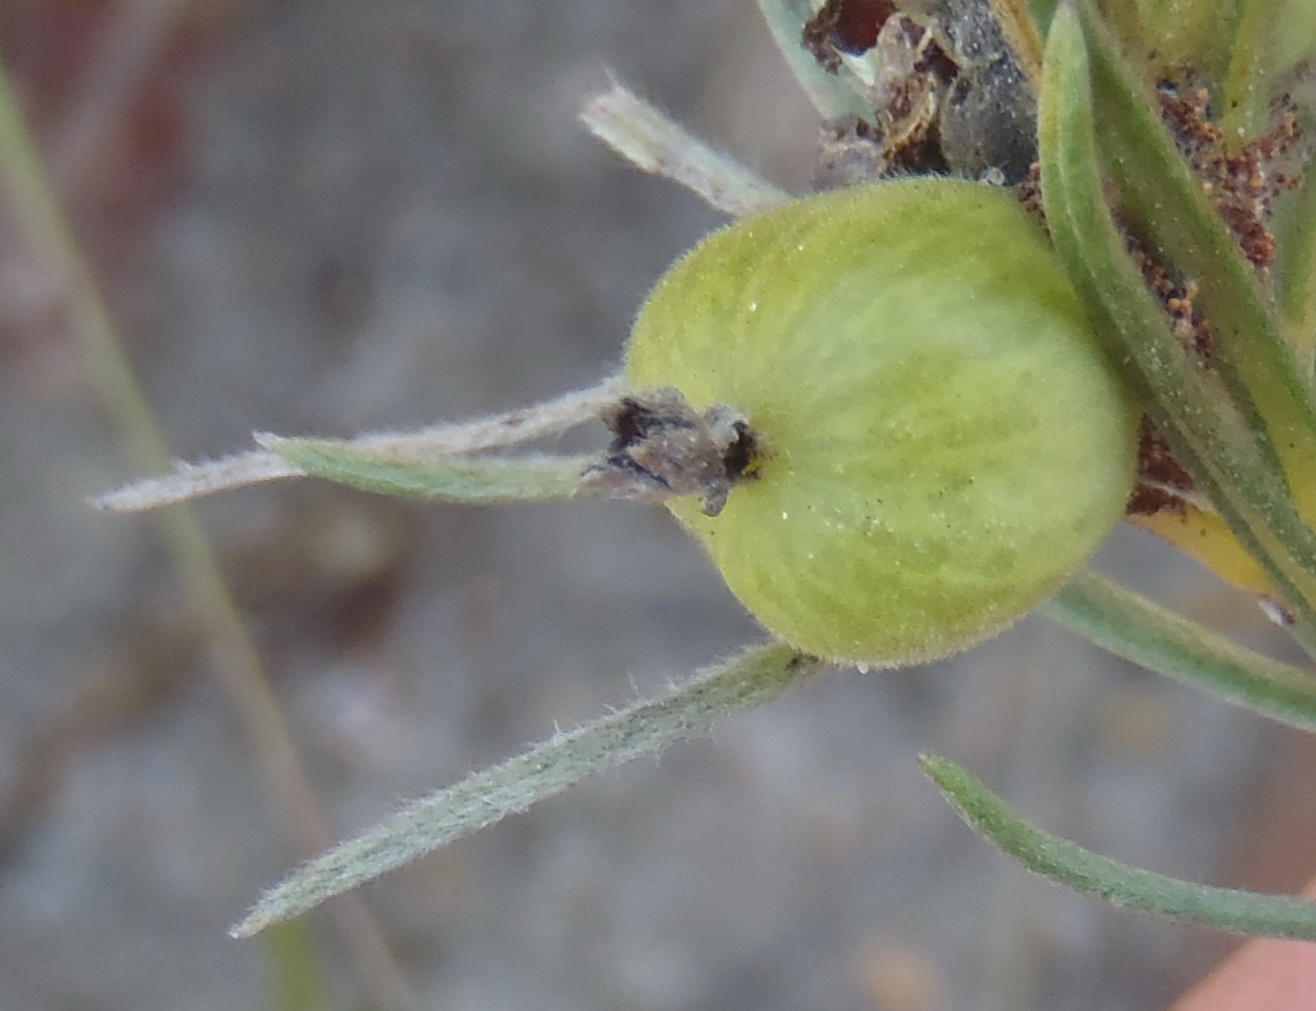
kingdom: Plantae
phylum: Tracheophyta
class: Magnoliopsida
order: Rosales
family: Rhamnaceae
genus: Phylica
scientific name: Phylica velutina
